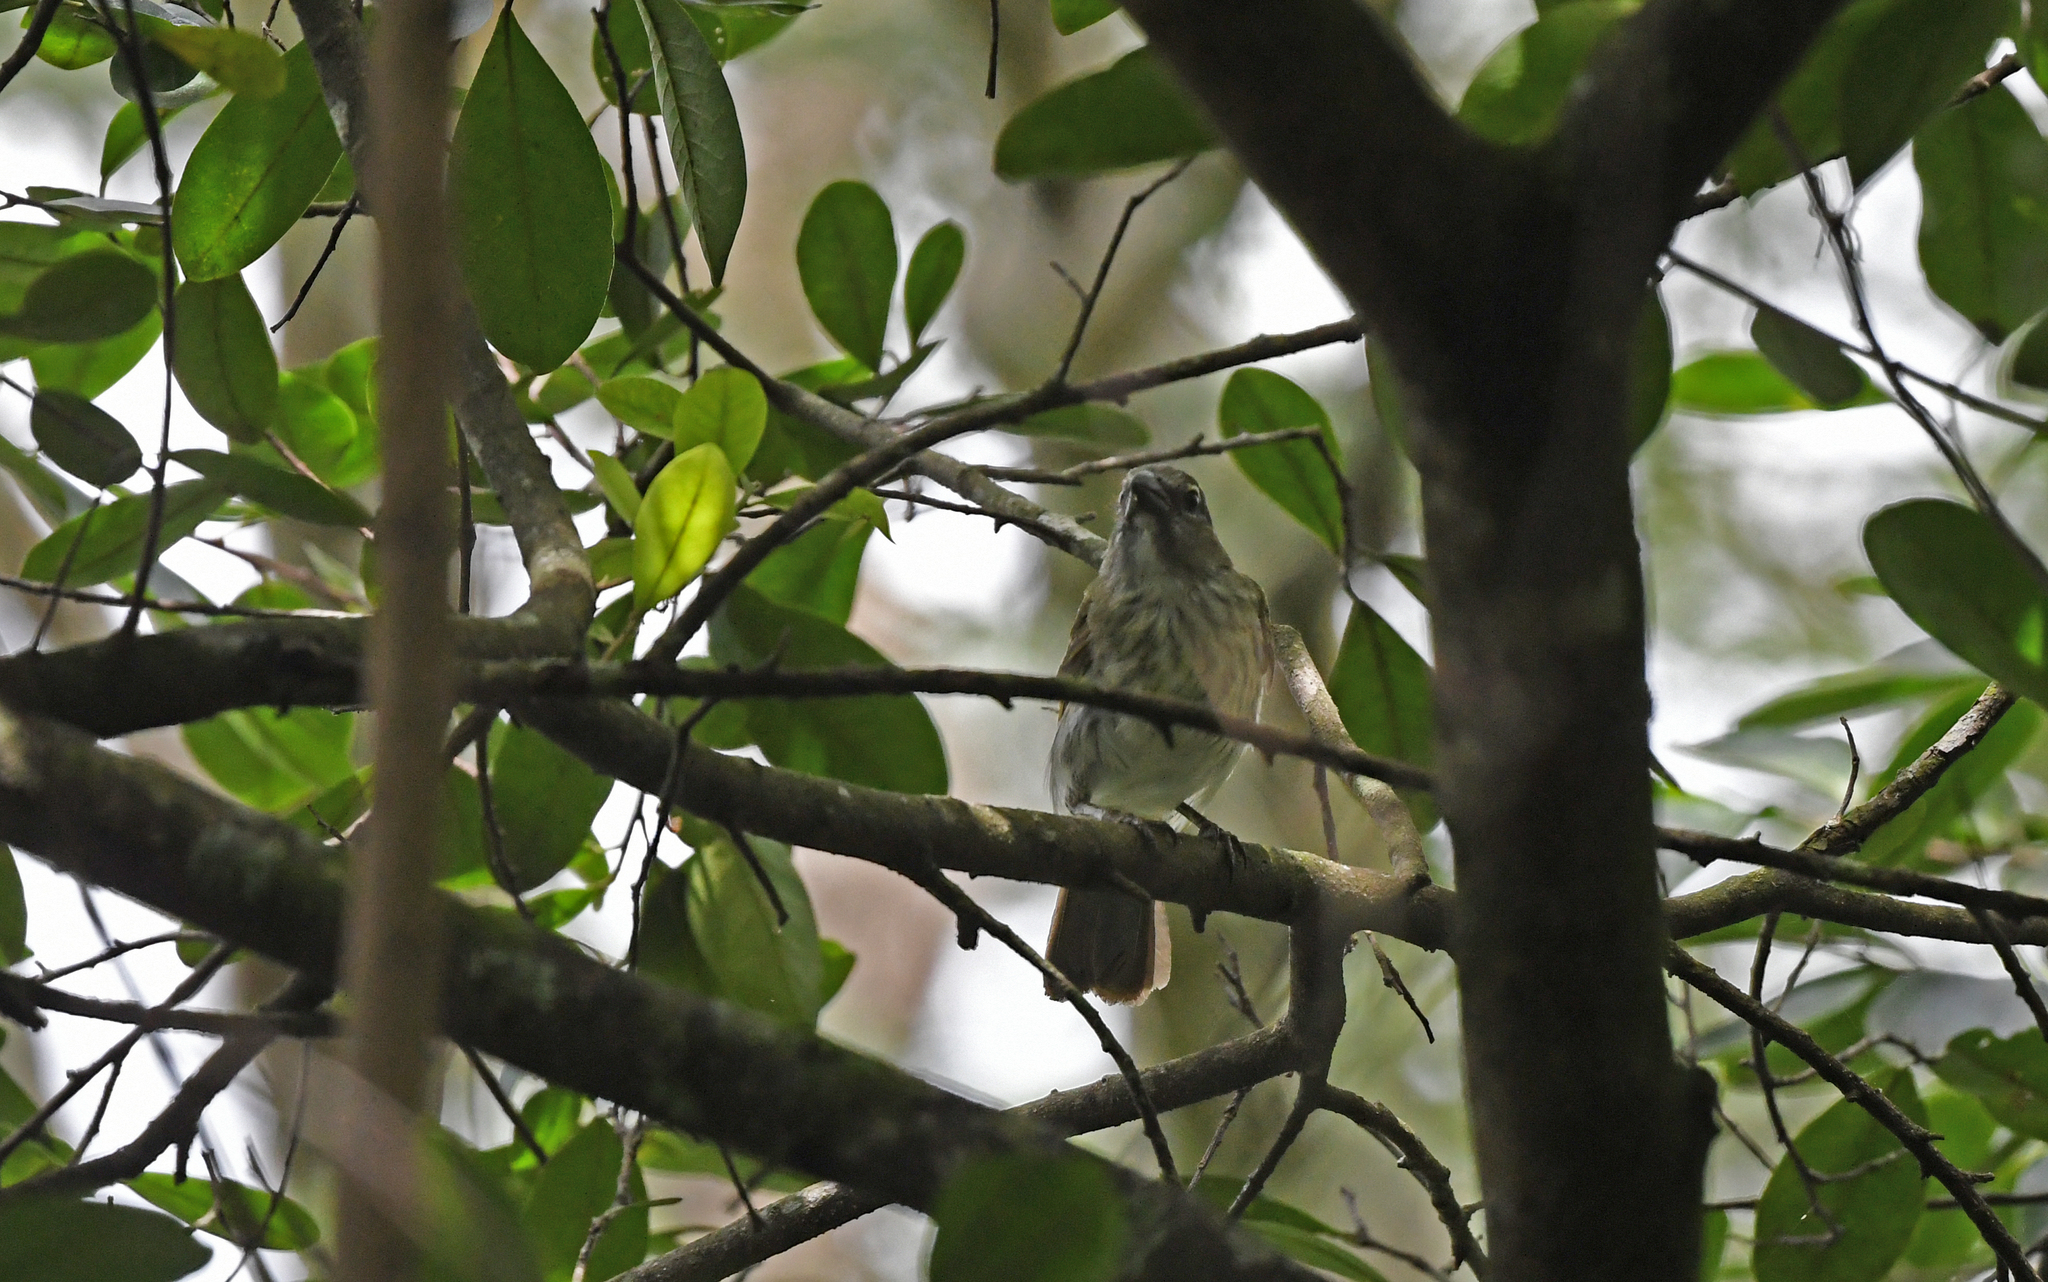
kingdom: Animalia
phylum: Chordata
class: Aves
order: Passeriformes
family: Thraupidae
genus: Saltator
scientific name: Saltator striatipectus
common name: Streaked saltator
